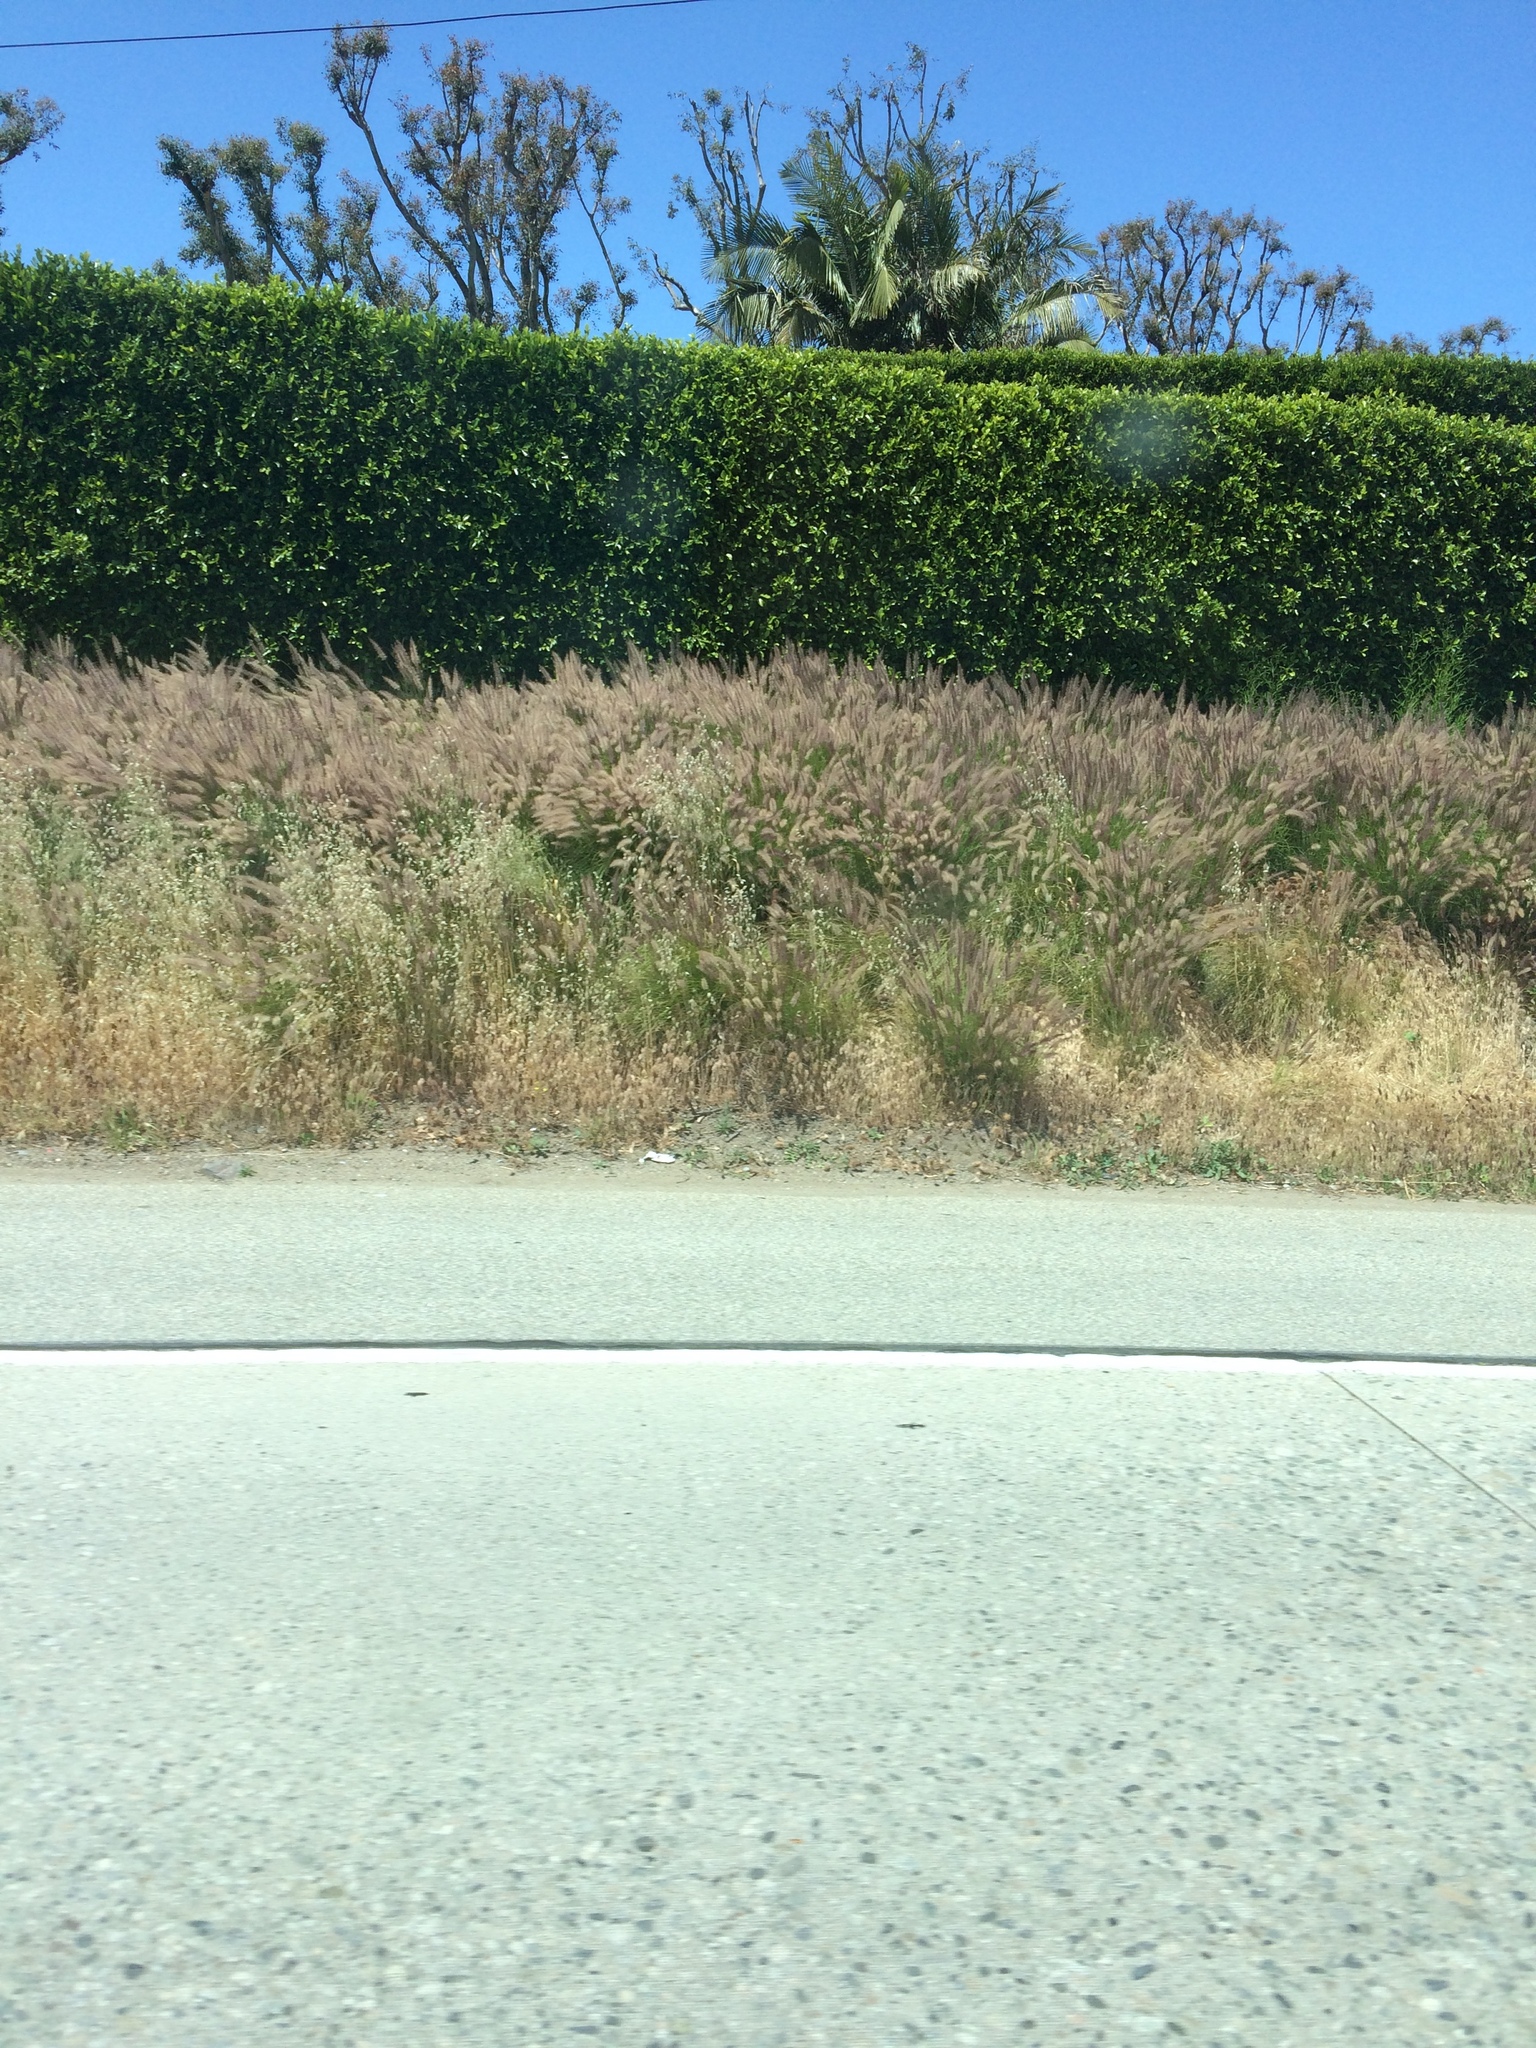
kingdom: Plantae
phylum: Tracheophyta
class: Liliopsida
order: Poales
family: Poaceae
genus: Cenchrus
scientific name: Cenchrus setaceus
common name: Crimson fountaingrass
